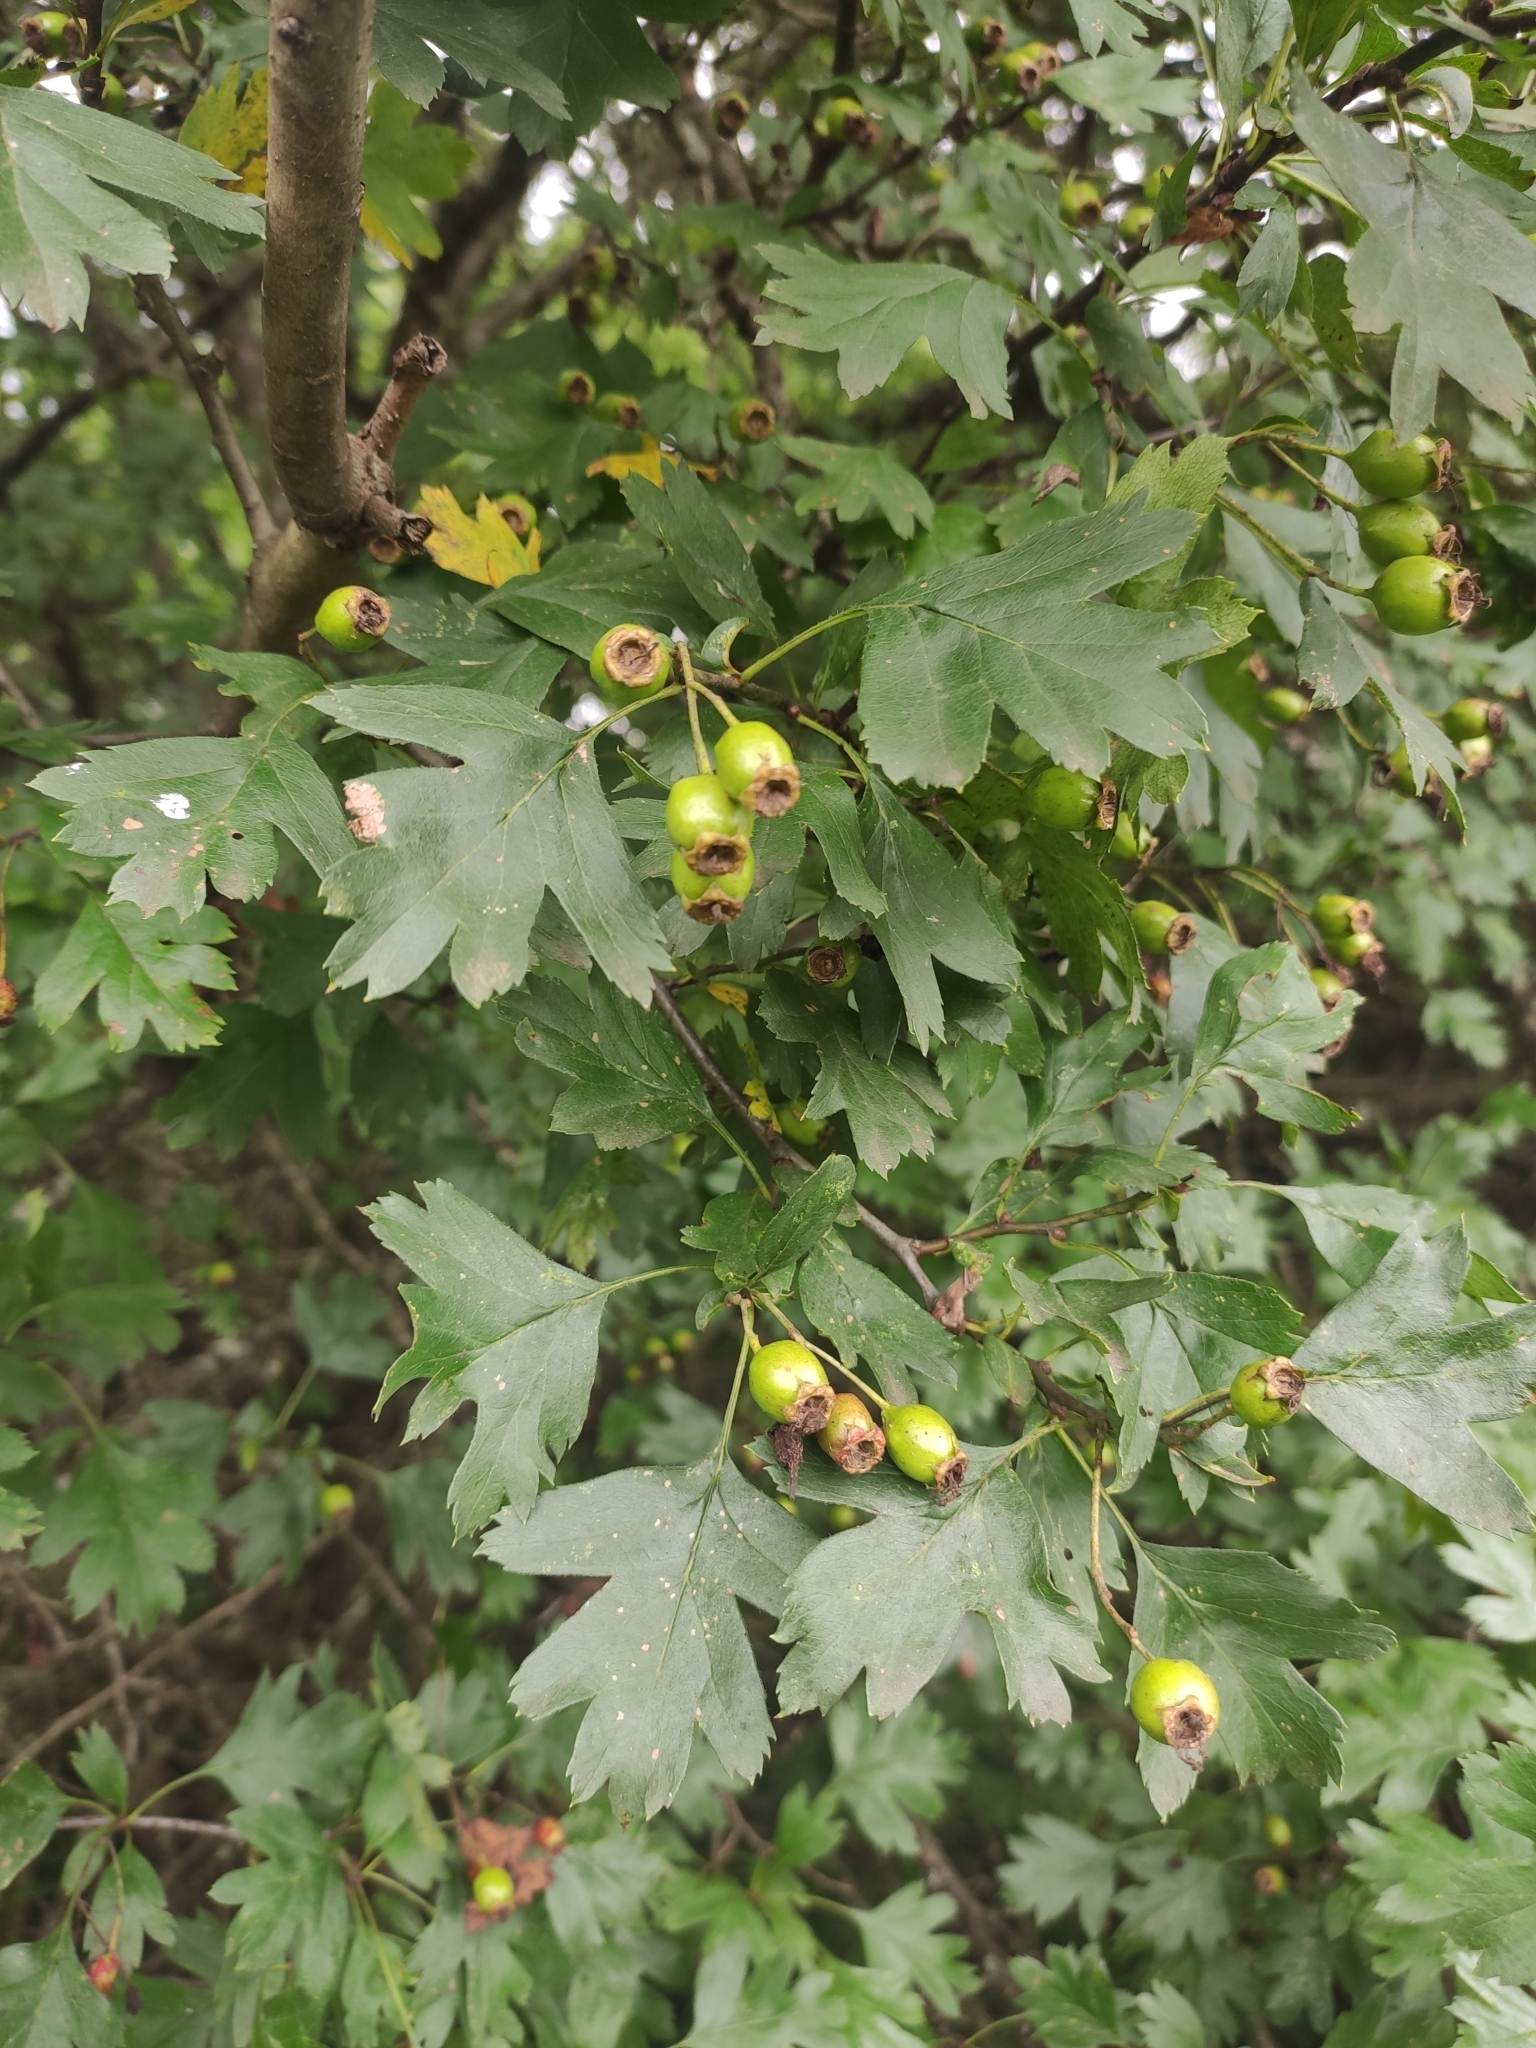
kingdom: Plantae
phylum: Tracheophyta
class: Magnoliopsida
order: Rosales
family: Rosaceae
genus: Crataegus
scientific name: Crataegus monogyna
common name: Hawthorn
